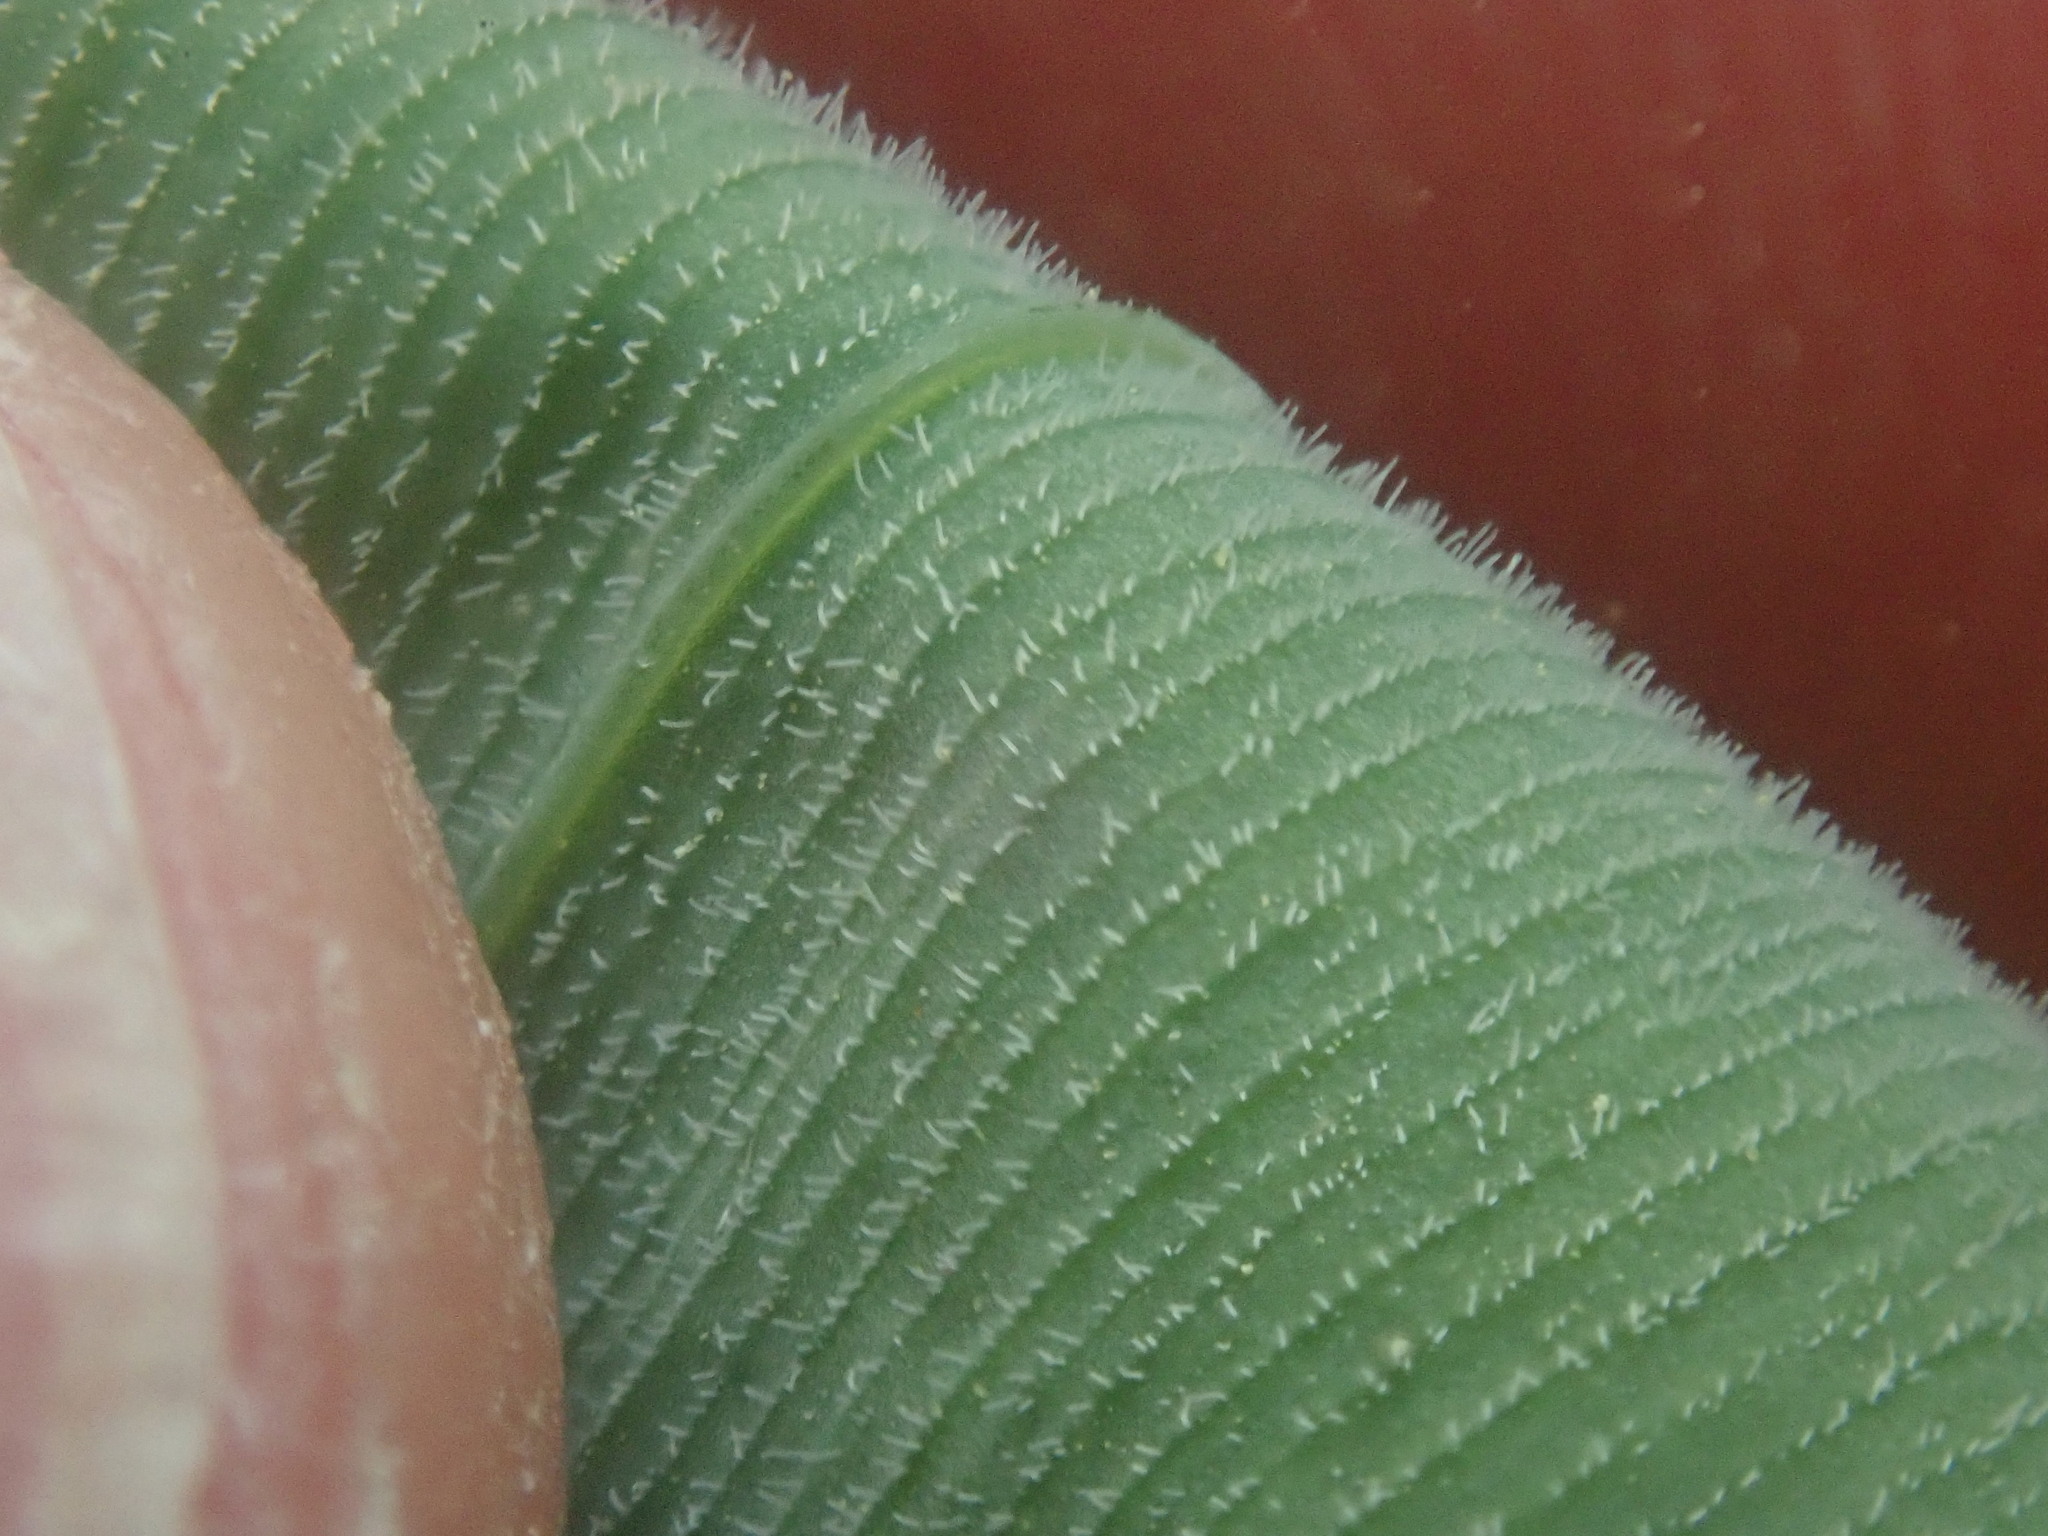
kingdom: Plantae
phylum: Tracheophyta
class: Liliopsida
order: Asparagales
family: Asparagaceae
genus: Polygonatum
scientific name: Polygonatum pubescens
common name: Downy solomon's seal
